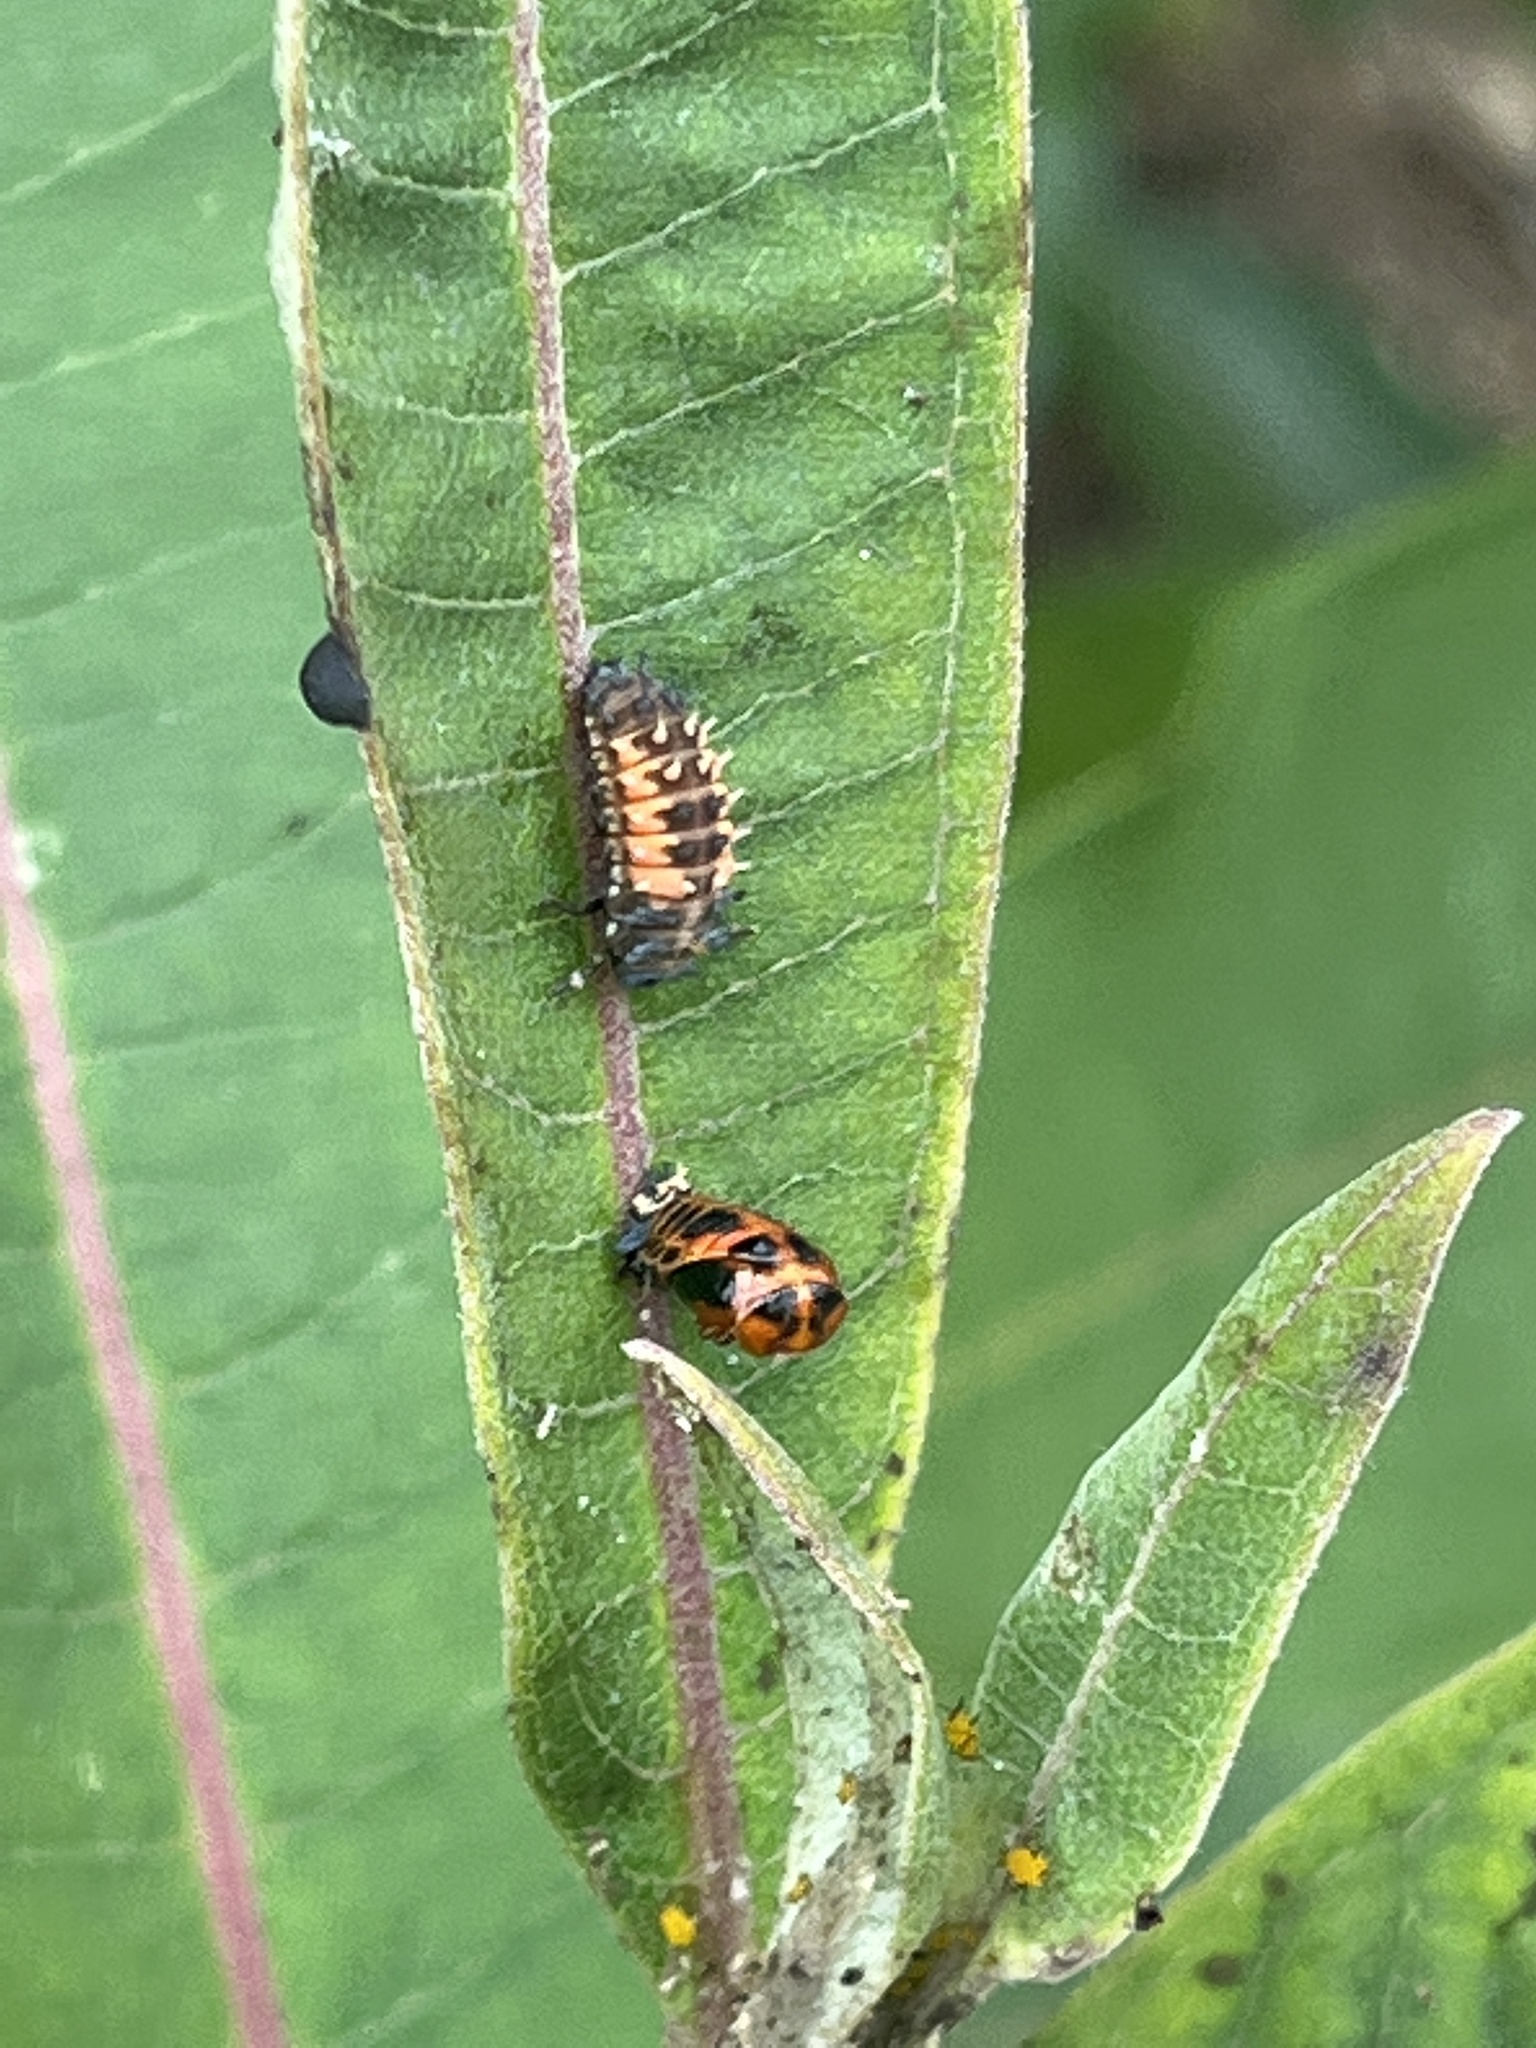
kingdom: Animalia
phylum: Arthropoda
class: Insecta
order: Coleoptera
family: Coccinellidae
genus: Harmonia
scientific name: Harmonia axyridis
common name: Harlequin ladybird
